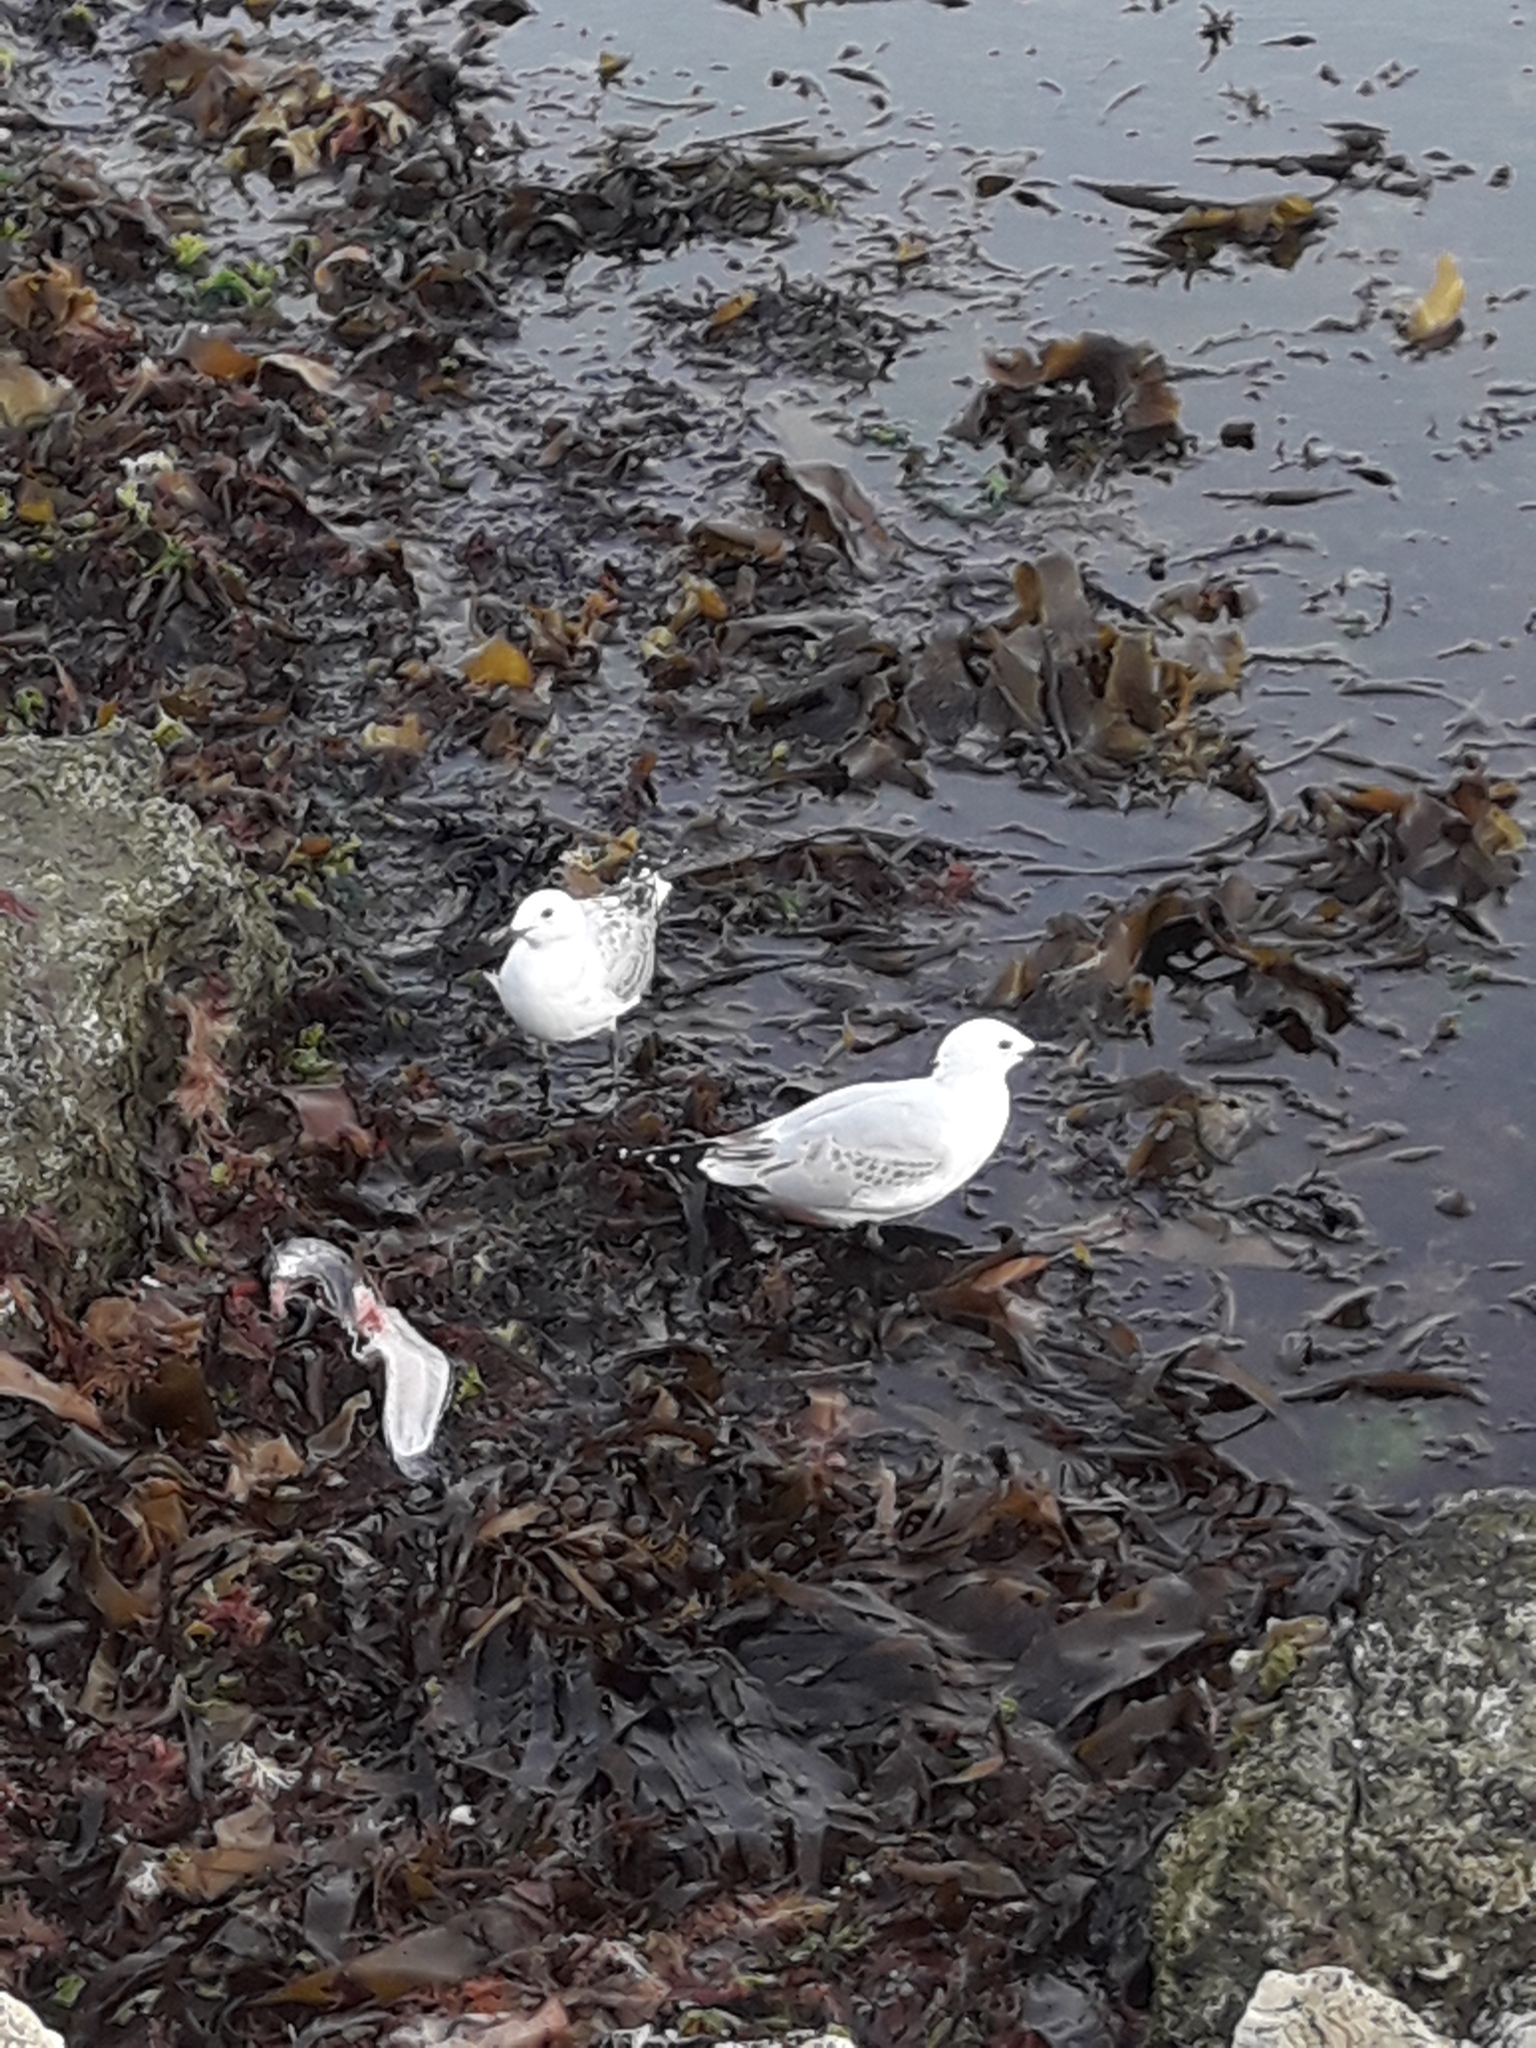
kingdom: Animalia
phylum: Chordata
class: Aves
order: Charadriiformes
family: Laridae
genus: Chroicocephalus
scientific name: Chroicocephalus novaehollandiae
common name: Silver gull
